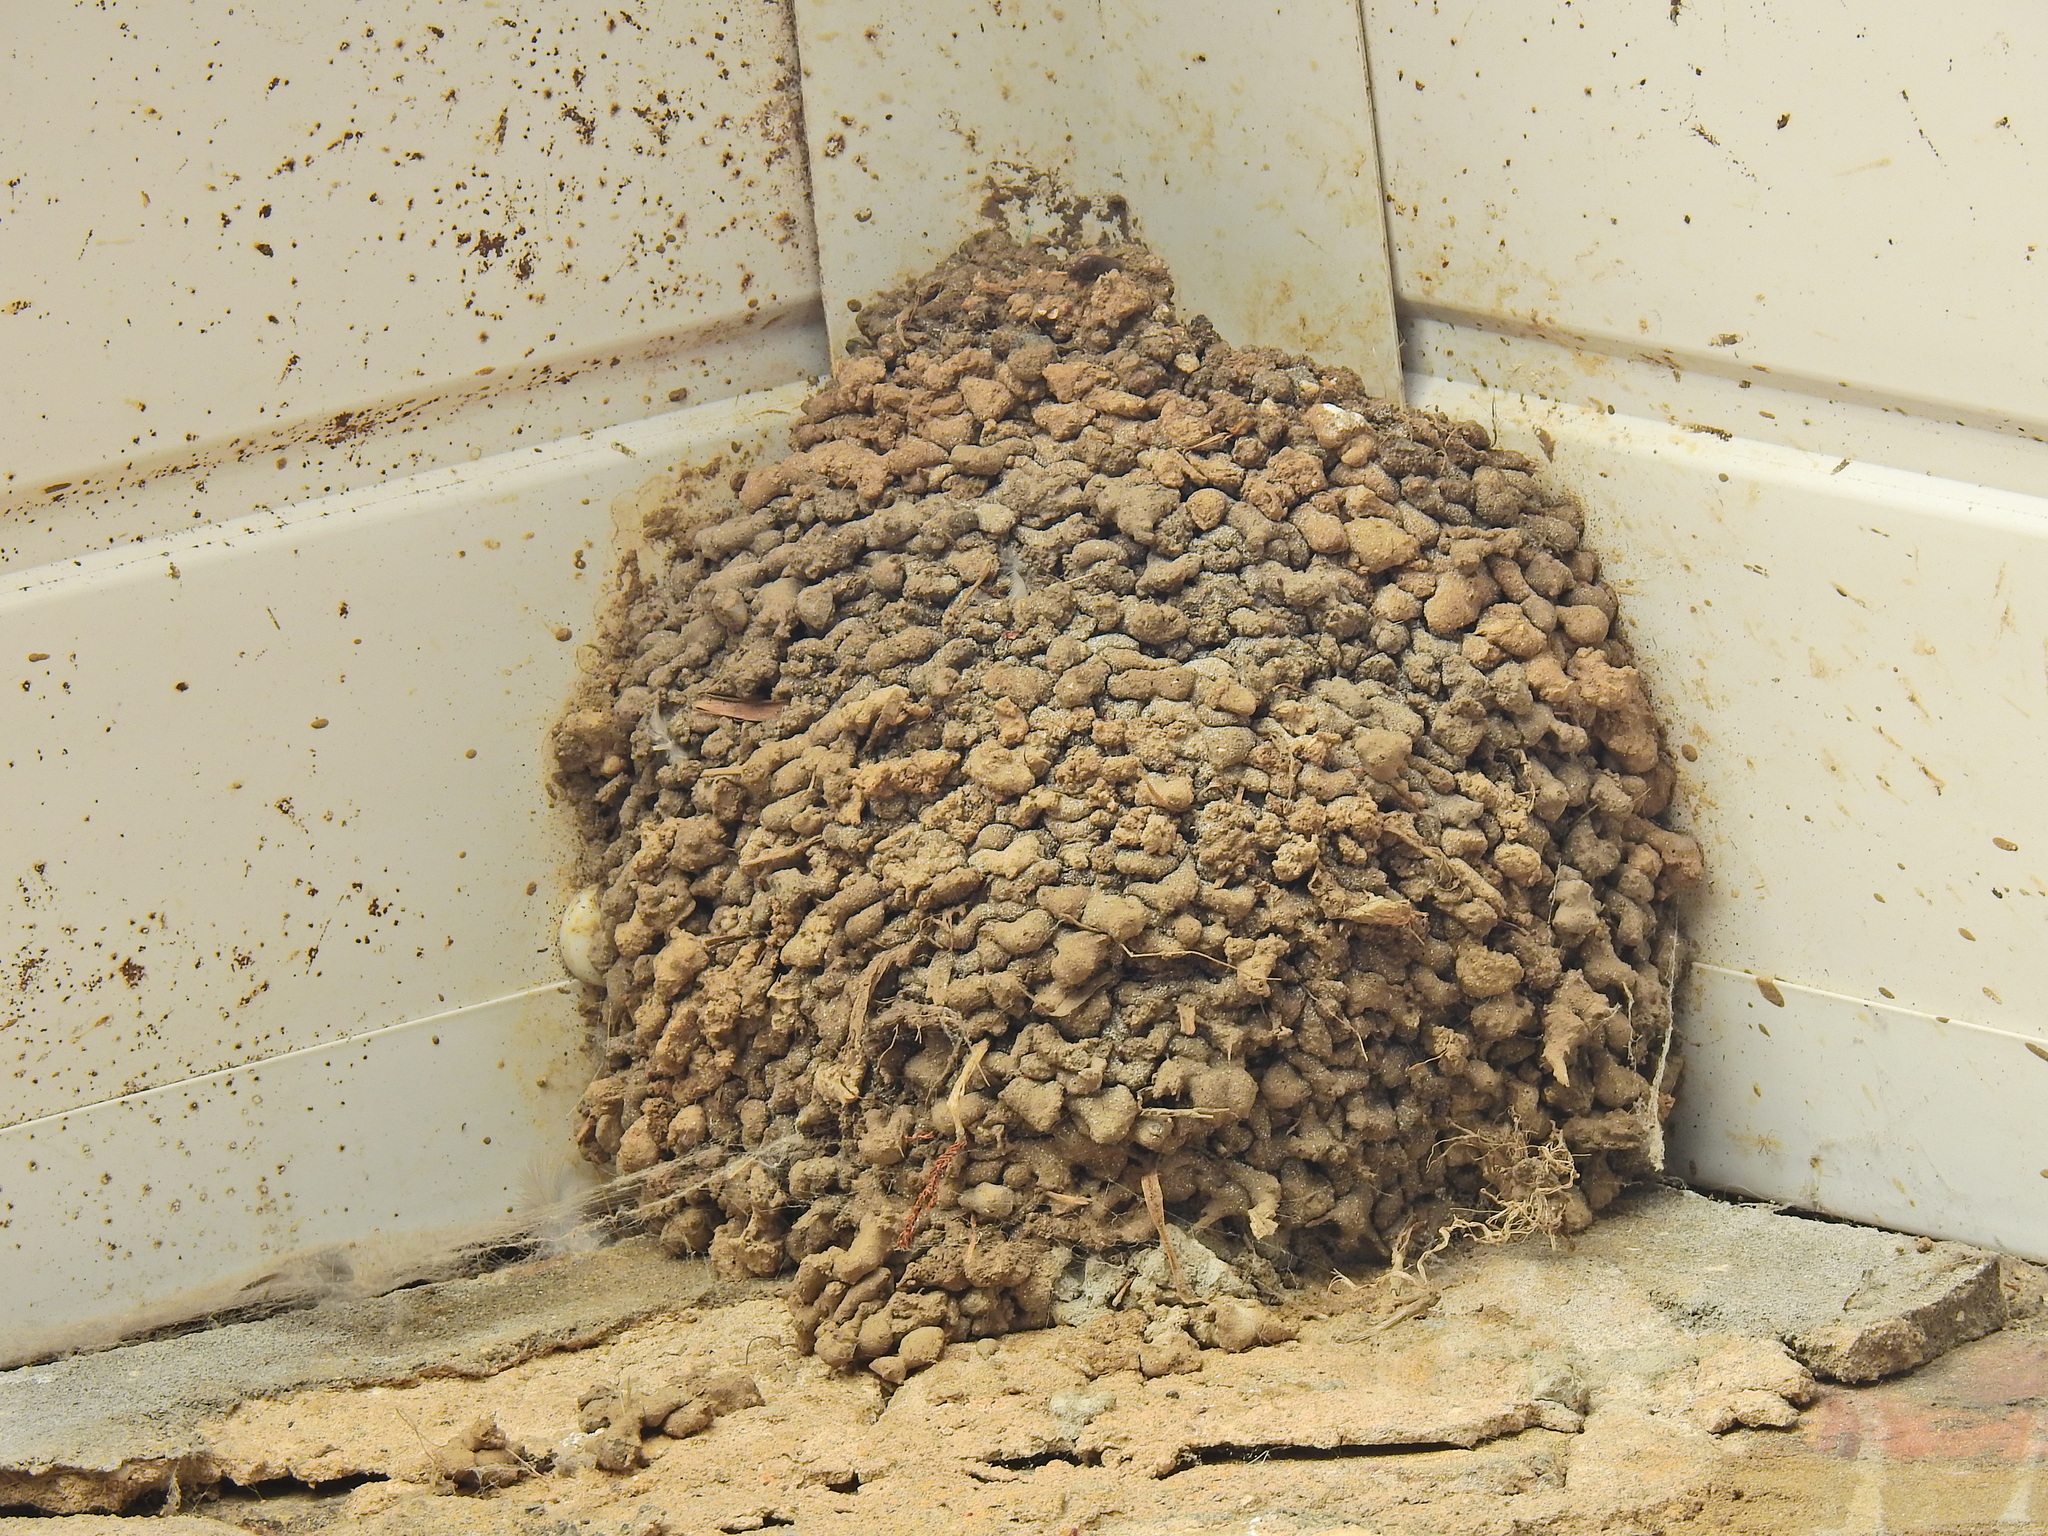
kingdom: Animalia
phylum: Chordata
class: Aves
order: Passeriformes
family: Hirundinidae
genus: Delichon
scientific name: Delichon urbicum
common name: Common house martin
